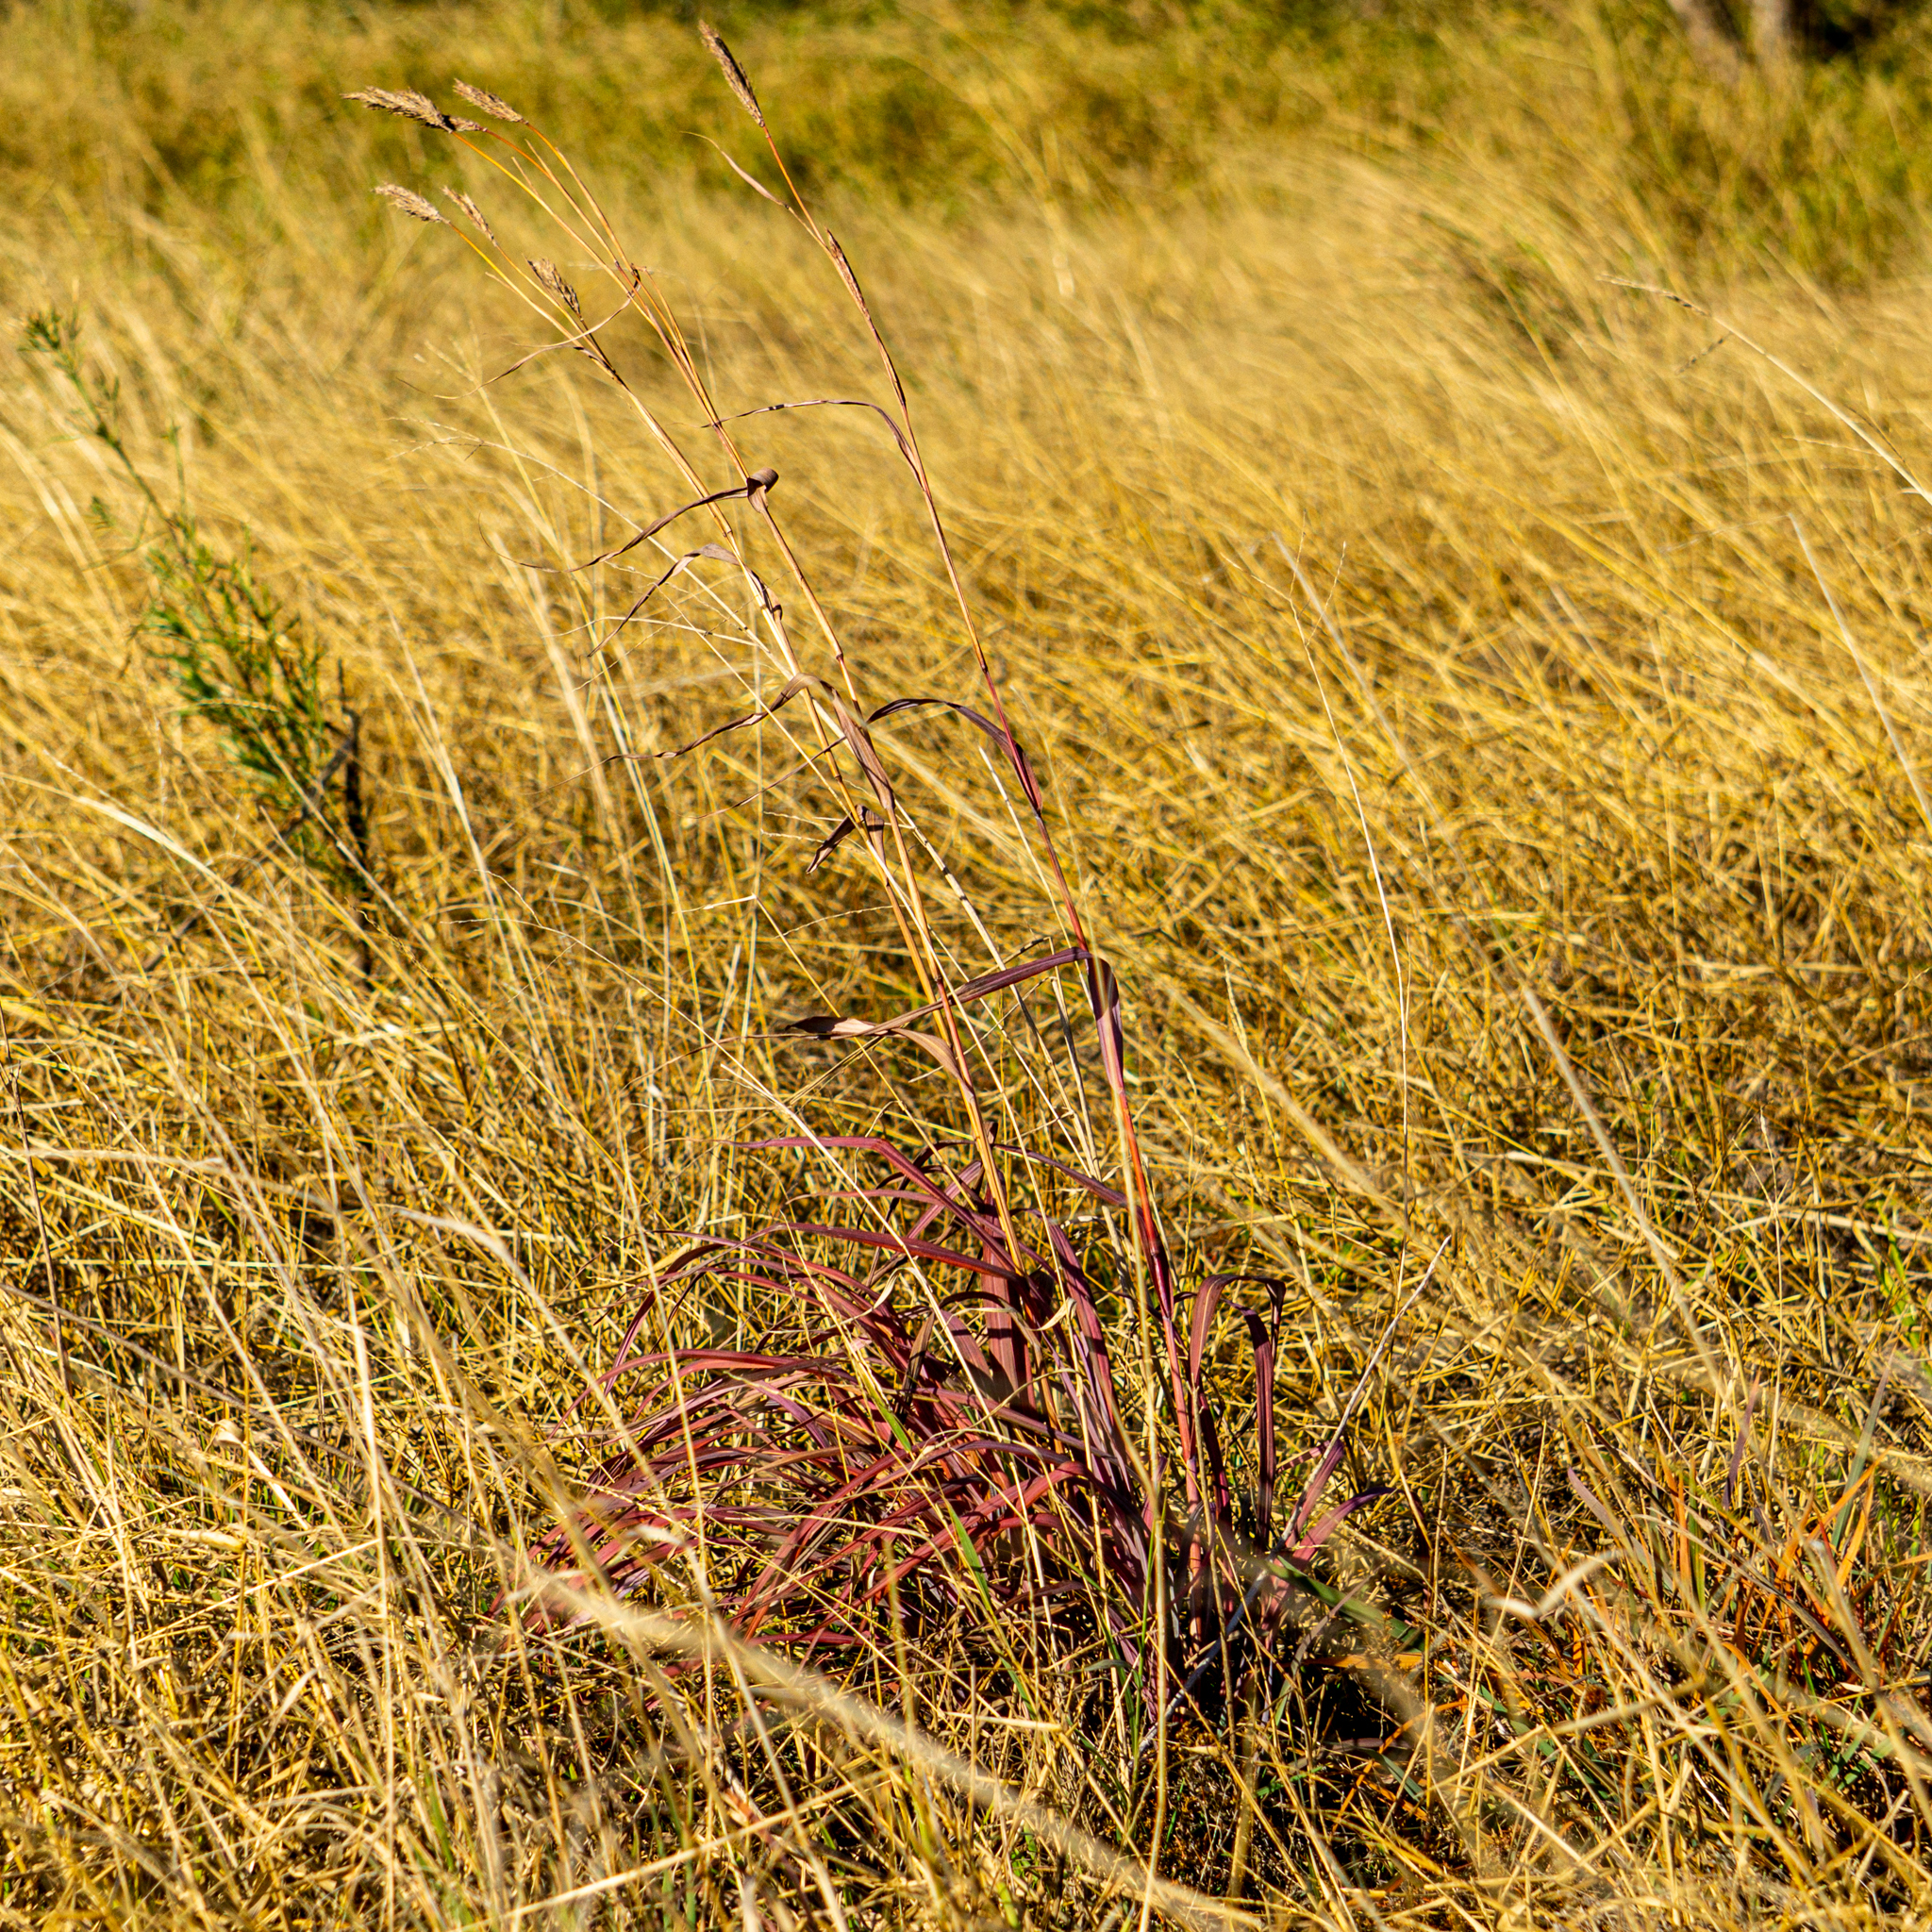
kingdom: Plantae
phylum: Tracheophyta
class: Liliopsida
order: Poales
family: Poaceae
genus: Andropogon
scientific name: Andropogon gerardi
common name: Big bluestem
